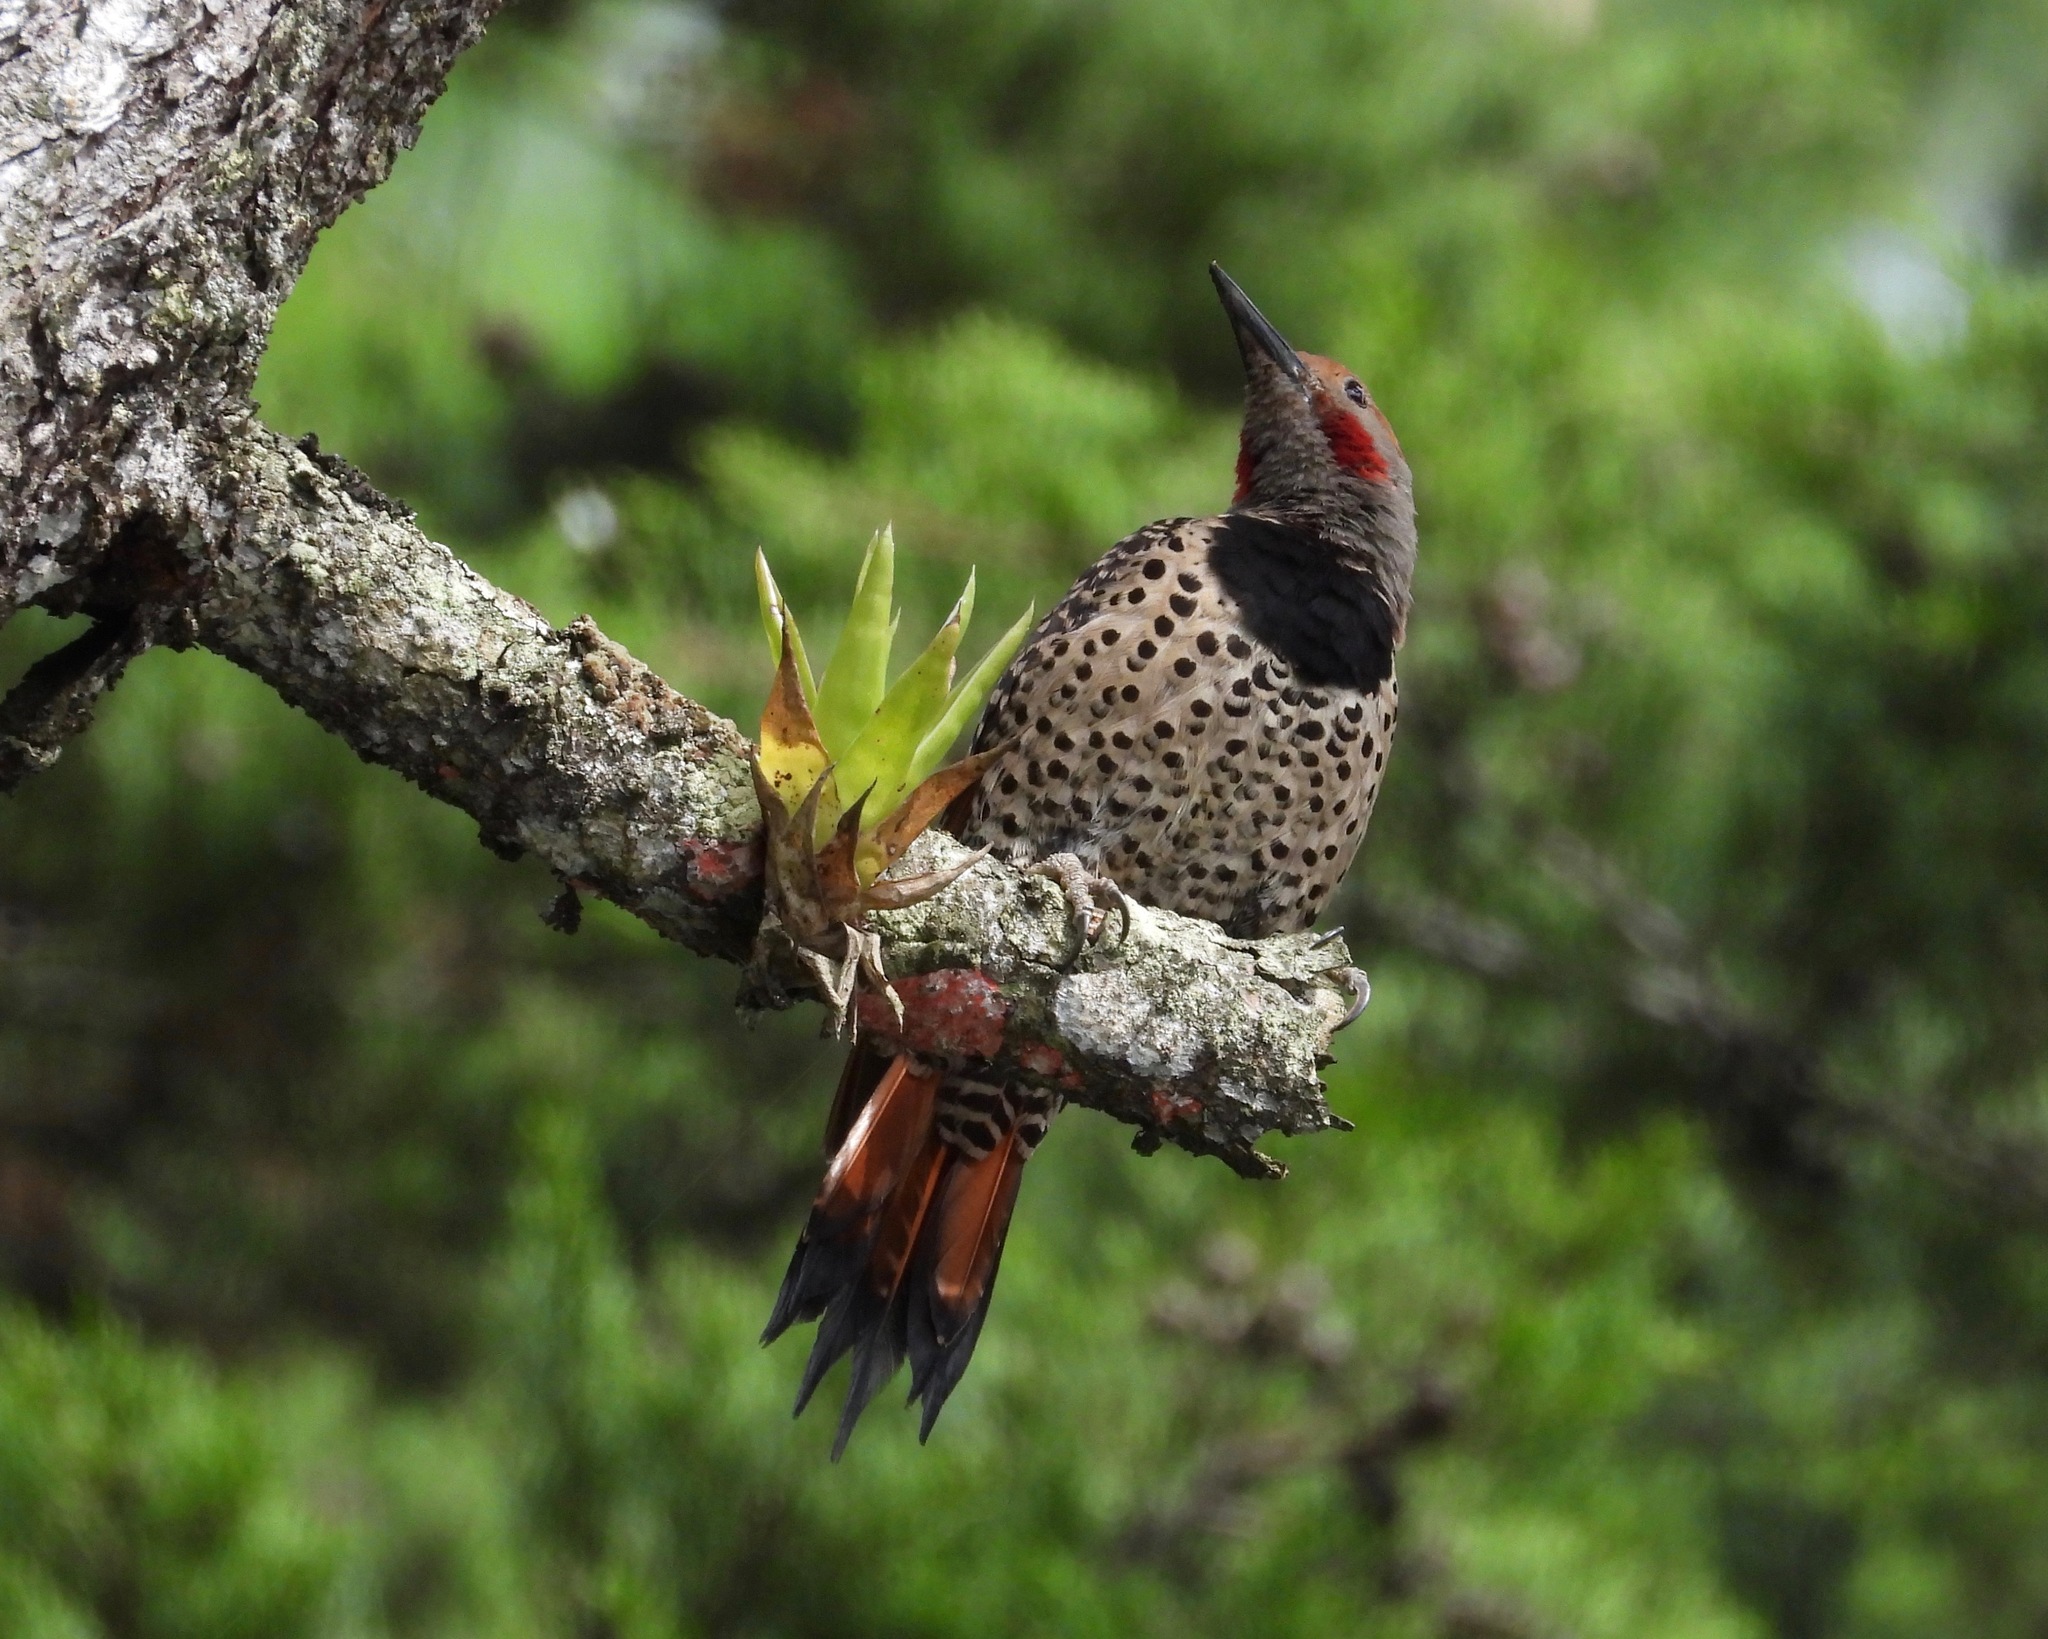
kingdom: Animalia
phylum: Chordata
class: Aves
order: Piciformes
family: Picidae
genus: Colaptes
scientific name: Colaptes auratus
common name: Northern flicker
